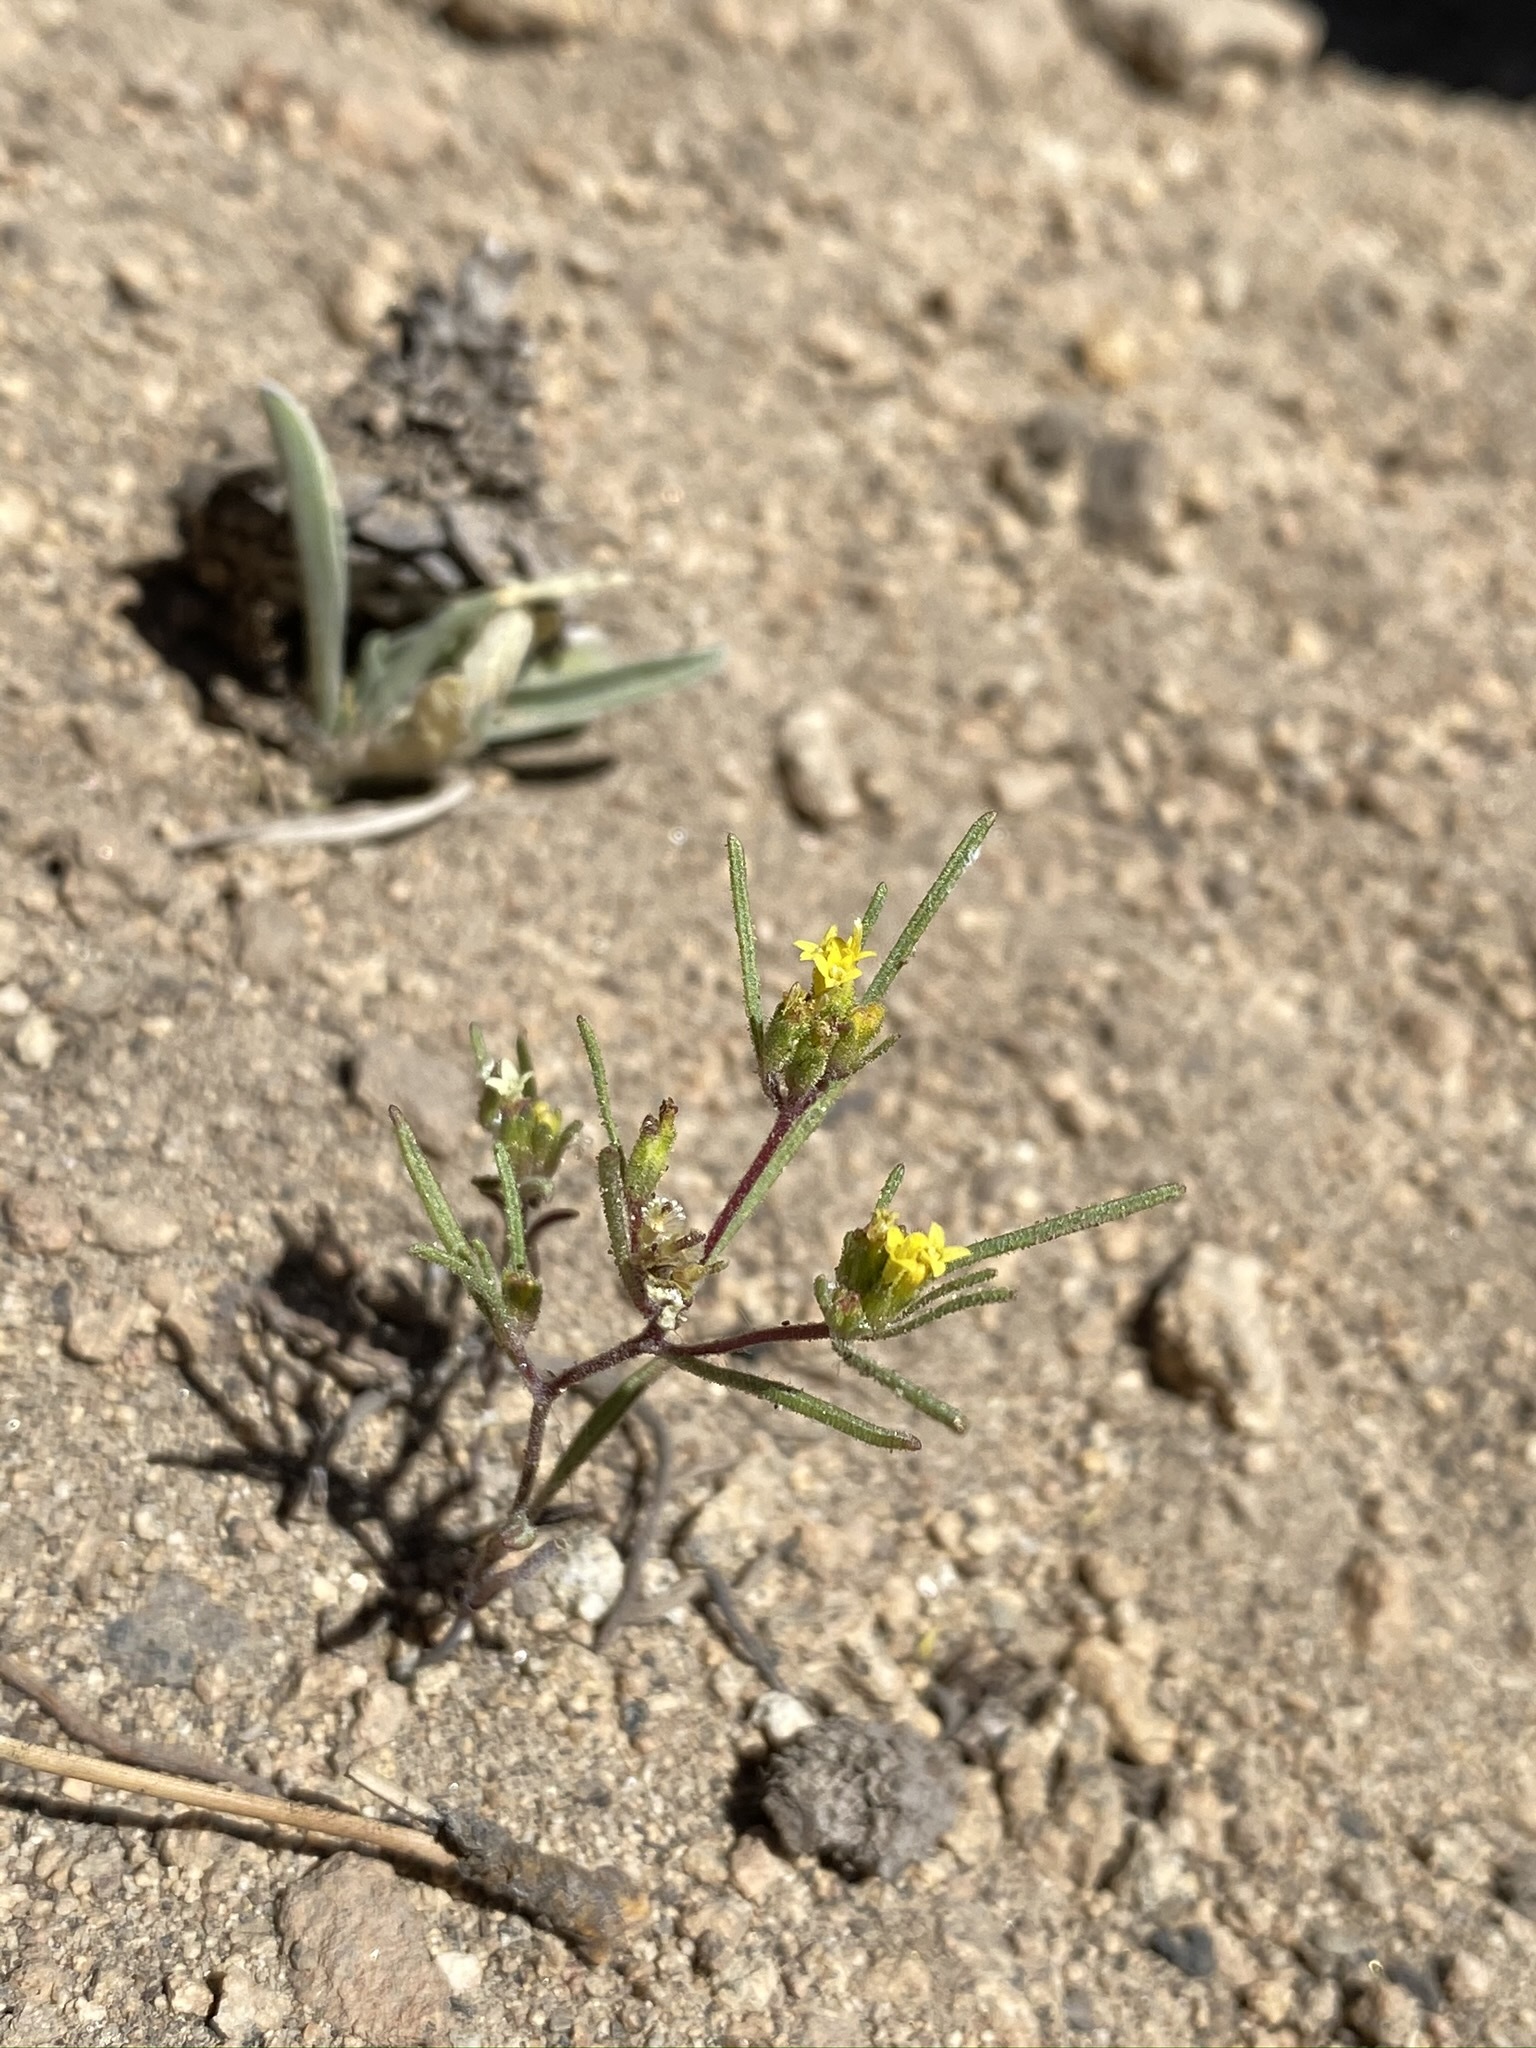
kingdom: Plantae
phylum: Tracheophyta
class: Magnoliopsida
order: Asterales
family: Asteraceae
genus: Orochaenactis
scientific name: Orochaenactis thysanocarpha
